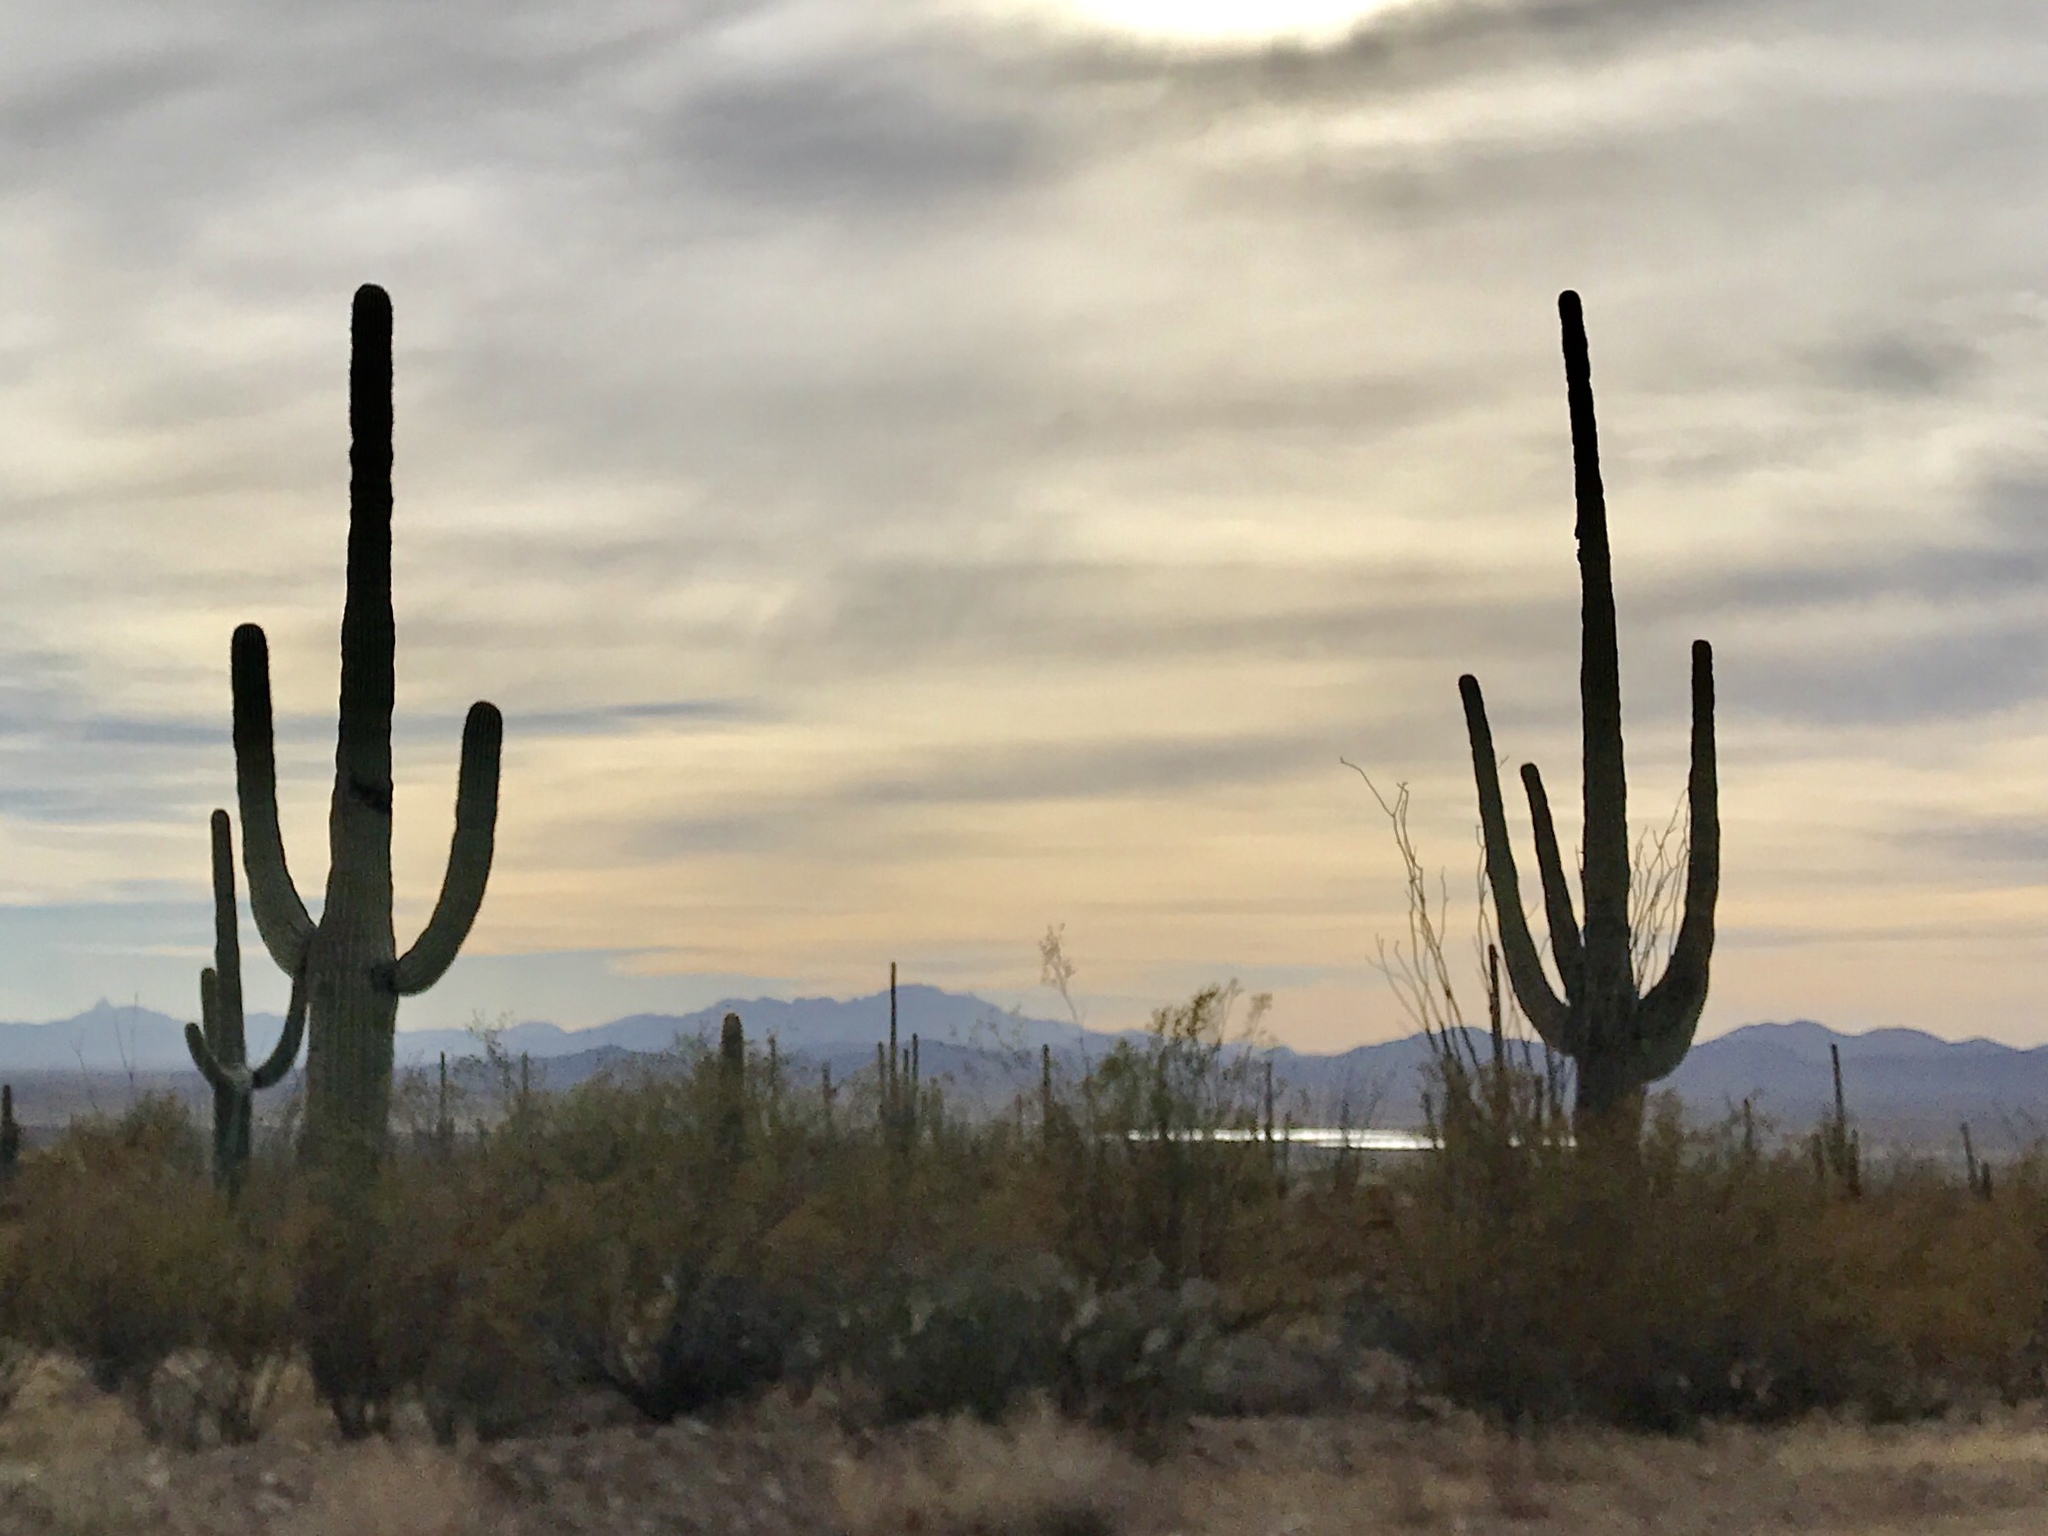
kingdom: Plantae
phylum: Tracheophyta
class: Magnoliopsida
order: Caryophyllales
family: Cactaceae
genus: Carnegiea
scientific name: Carnegiea gigantea
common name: Saguaro
